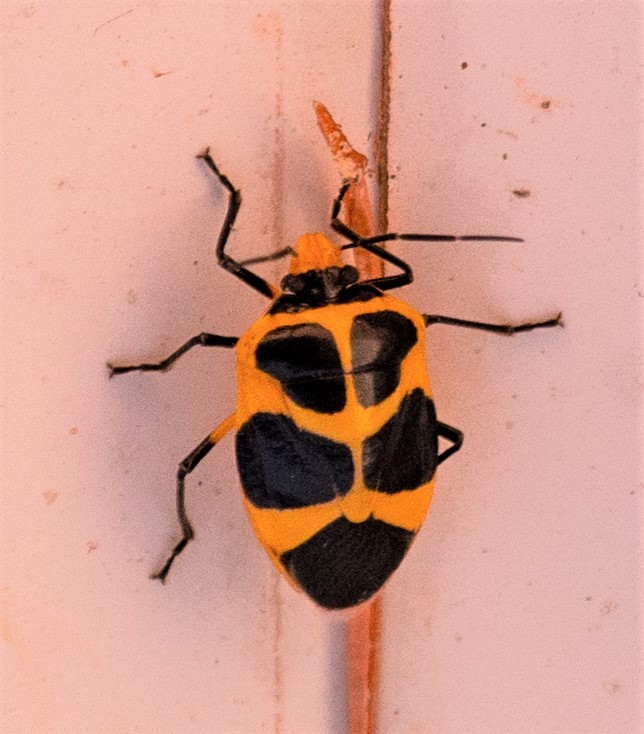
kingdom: Animalia
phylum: Arthropoda
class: Insecta
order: Hemiptera
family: Pentatomidae
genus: Arocera
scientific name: Arocera apta
